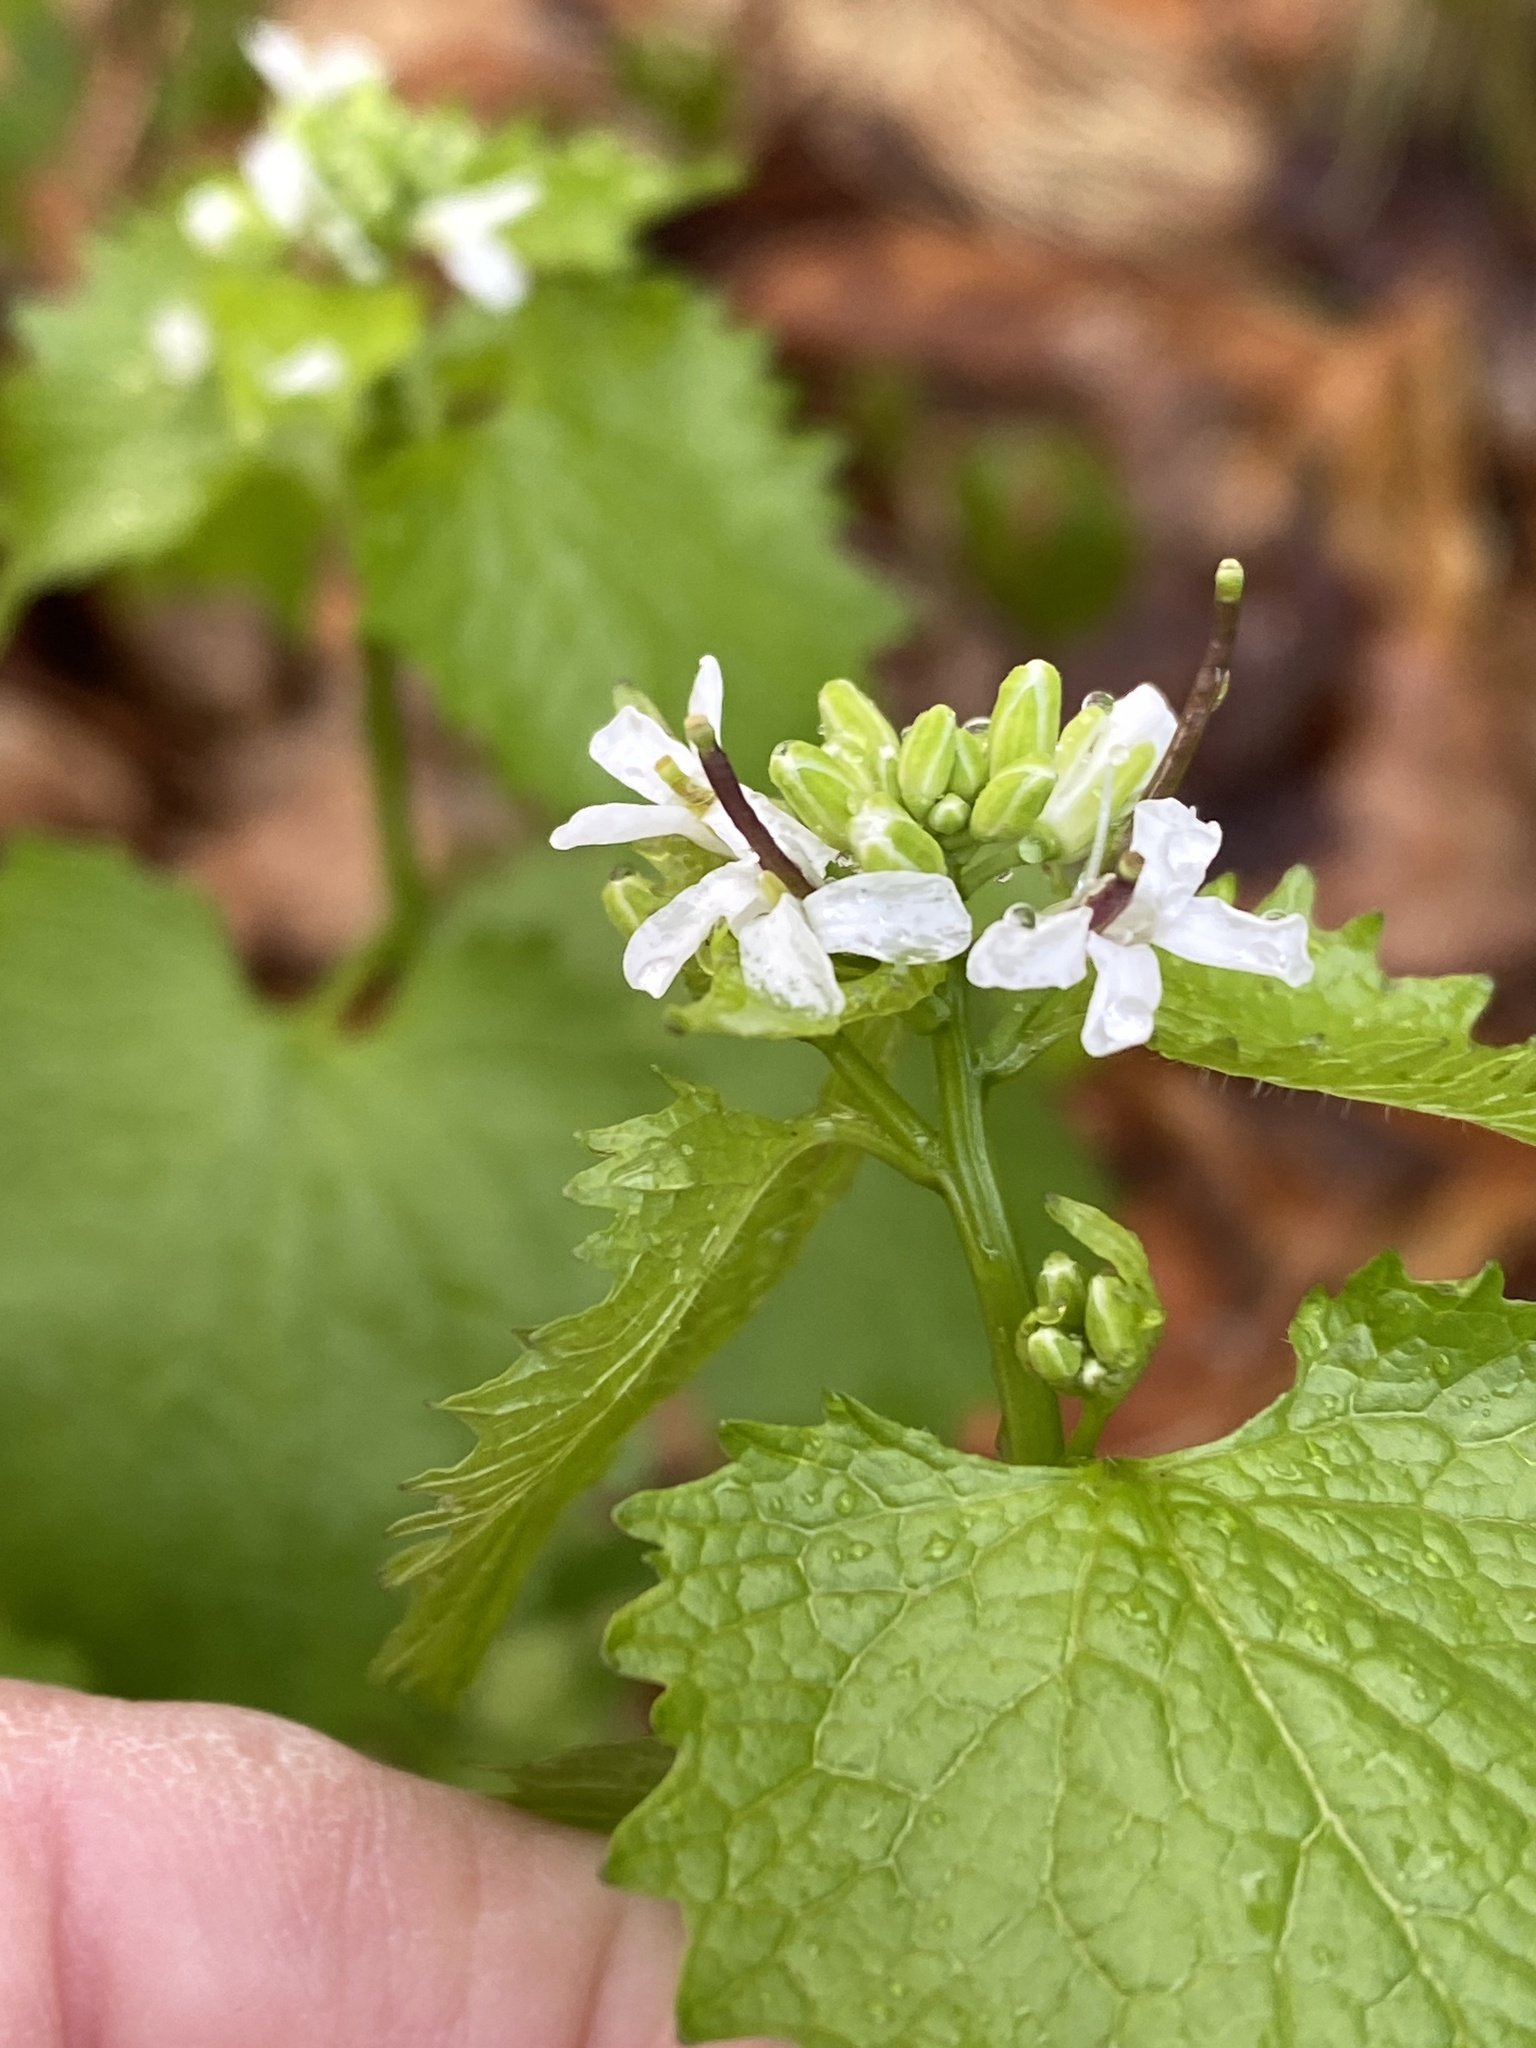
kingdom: Plantae
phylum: Tracheophyta
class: Magnoliopsida
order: Brassicales
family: Brassicaceae
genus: Alliaria
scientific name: Alliaria petiolata
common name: Garlic mustard
